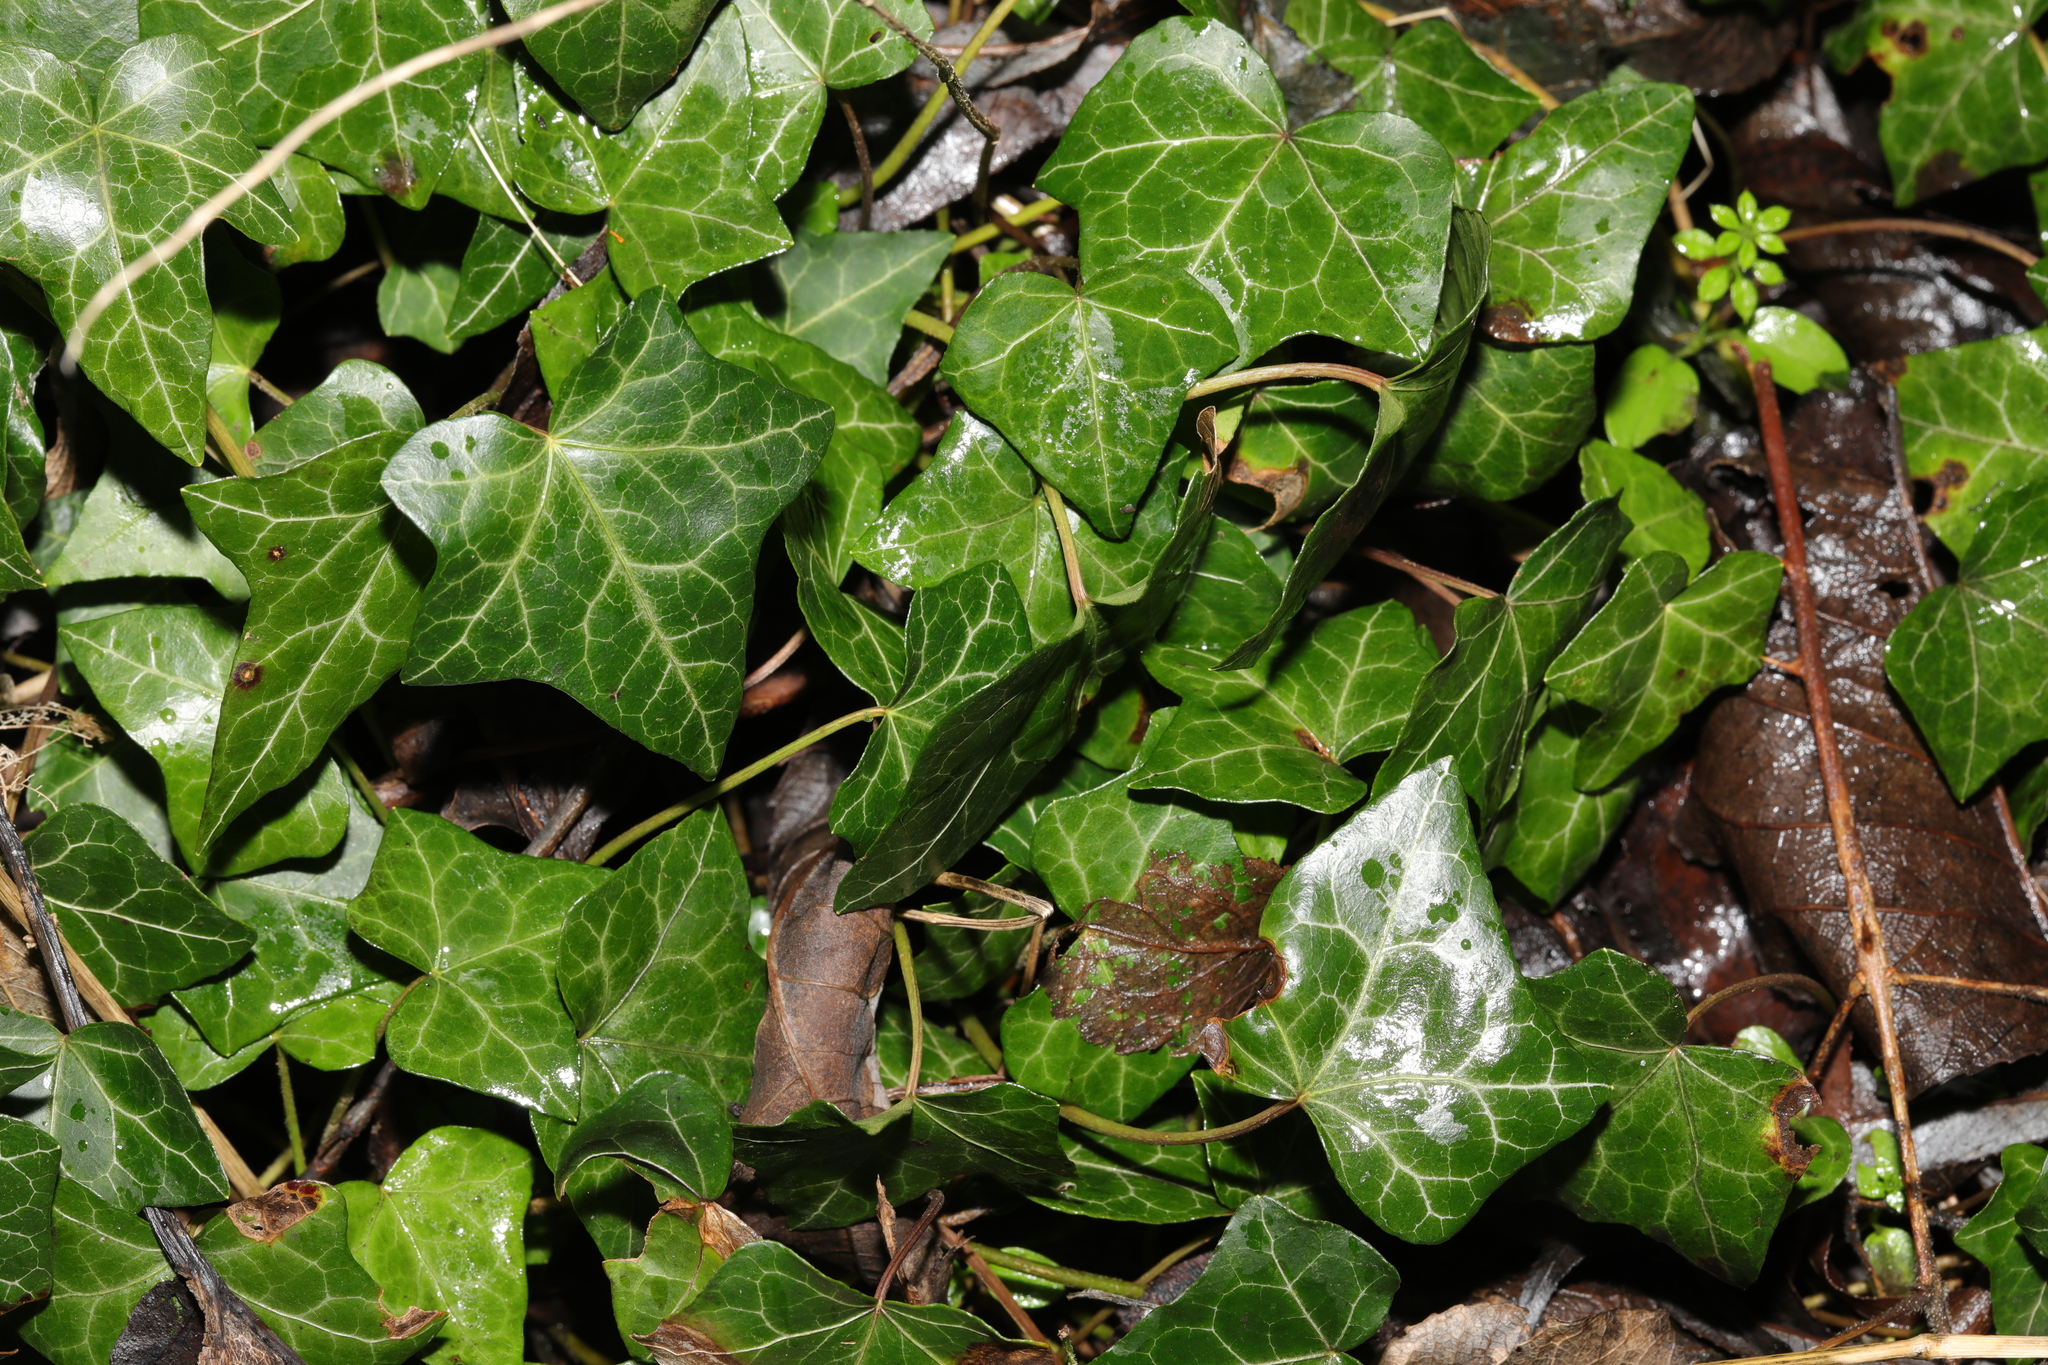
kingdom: Plantae
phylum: Tracheophyta
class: Magnoliopsida
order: Apiales
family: Araliaceae
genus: Hedera
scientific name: Hedera helix
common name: Ivy
